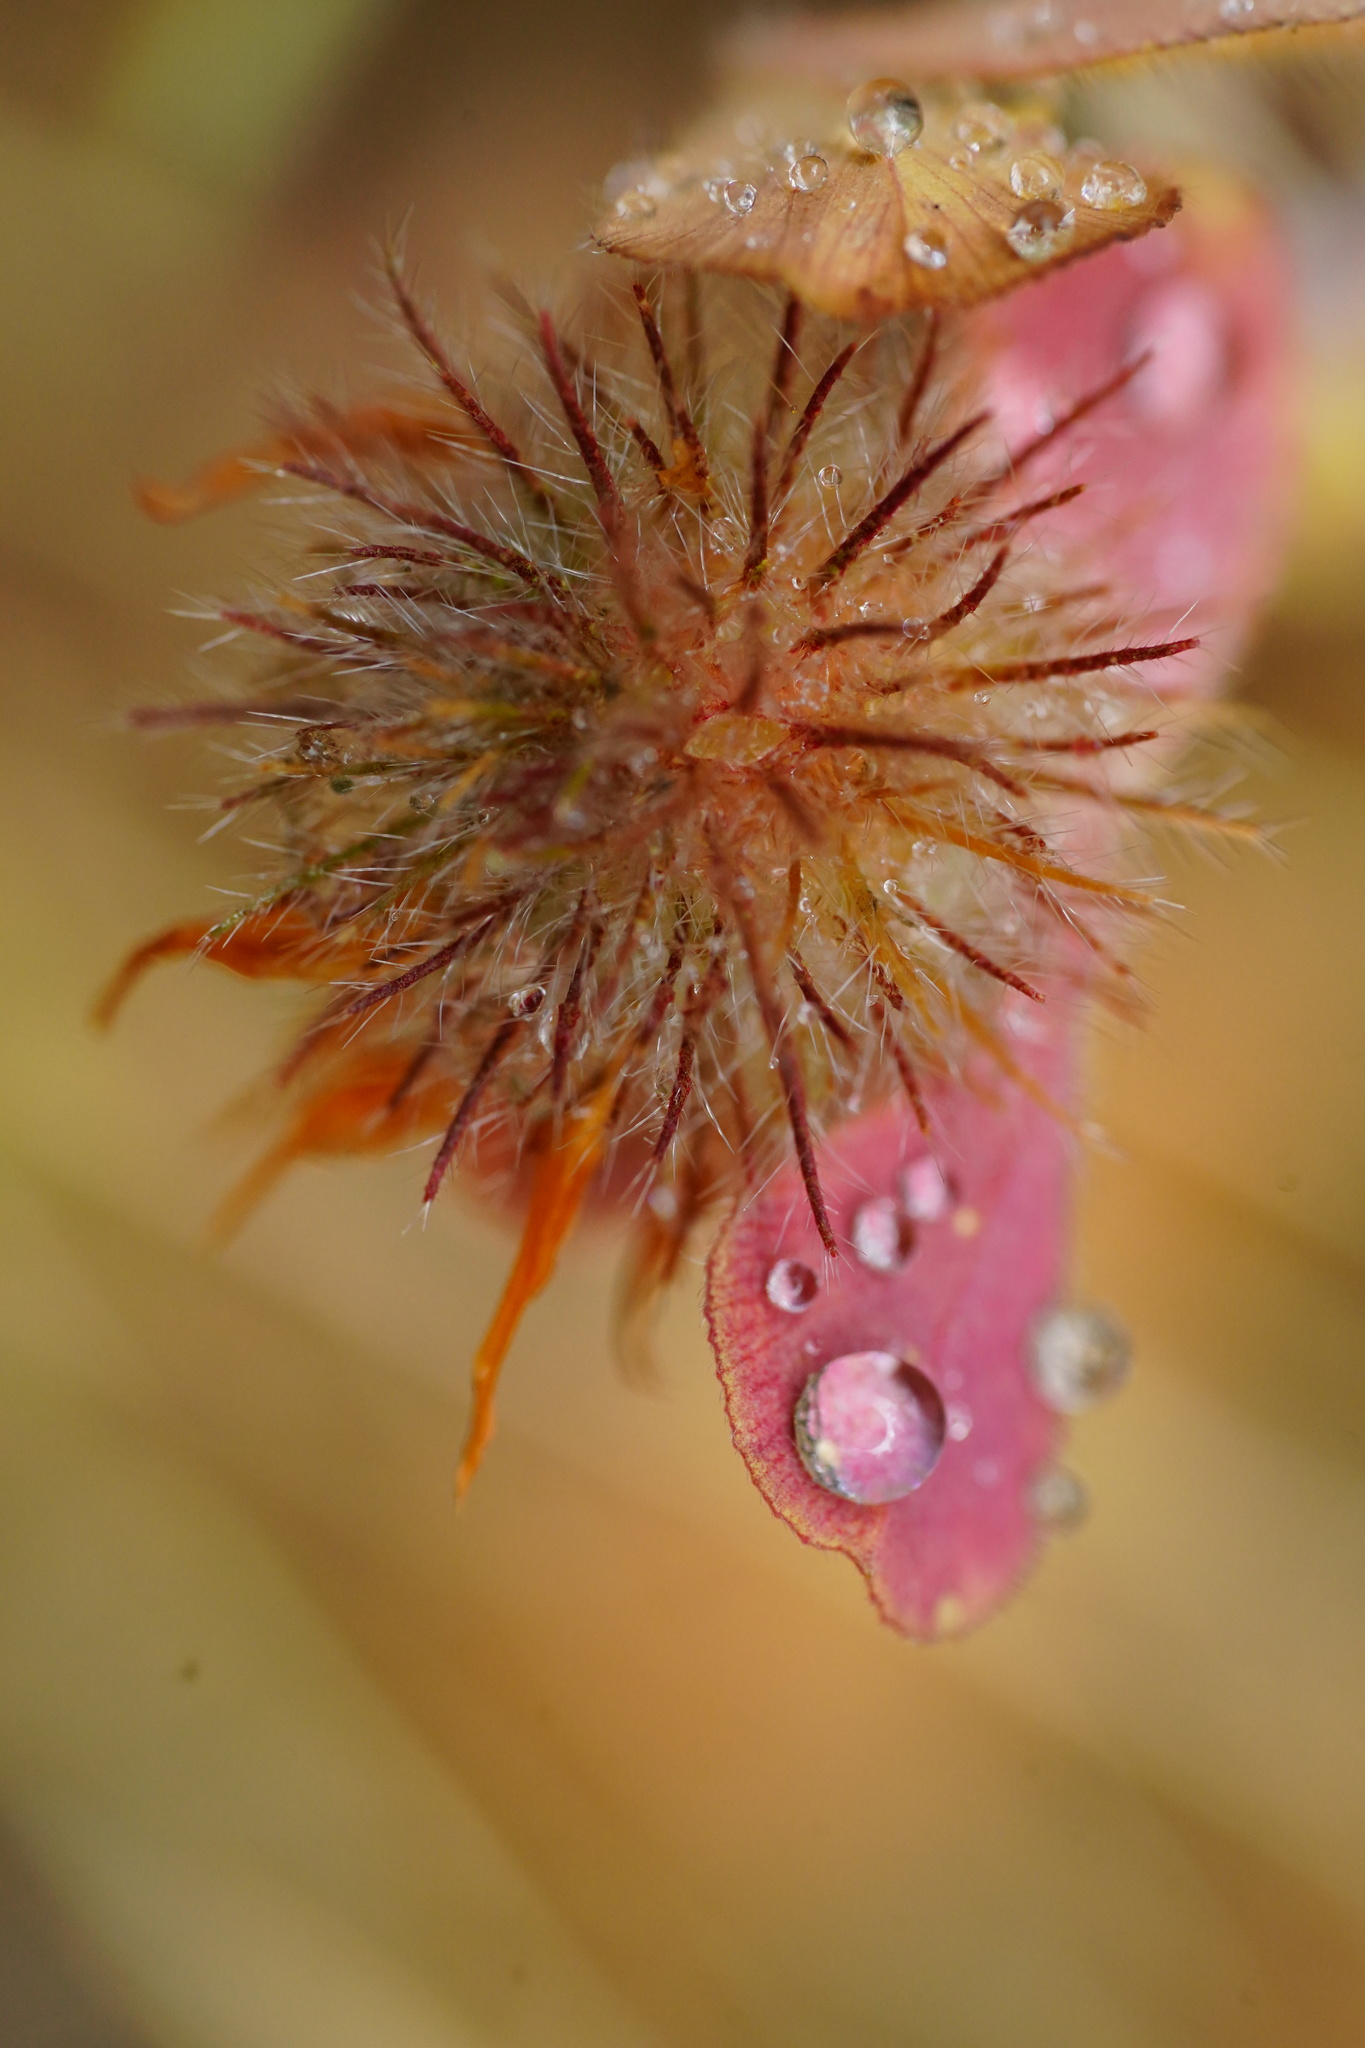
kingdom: Plantae
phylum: Tracheophyta
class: Magnoliopsida
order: Fabales
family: Fabaceae
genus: Trifolium
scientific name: Trifolium hirtum
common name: Rose clover
